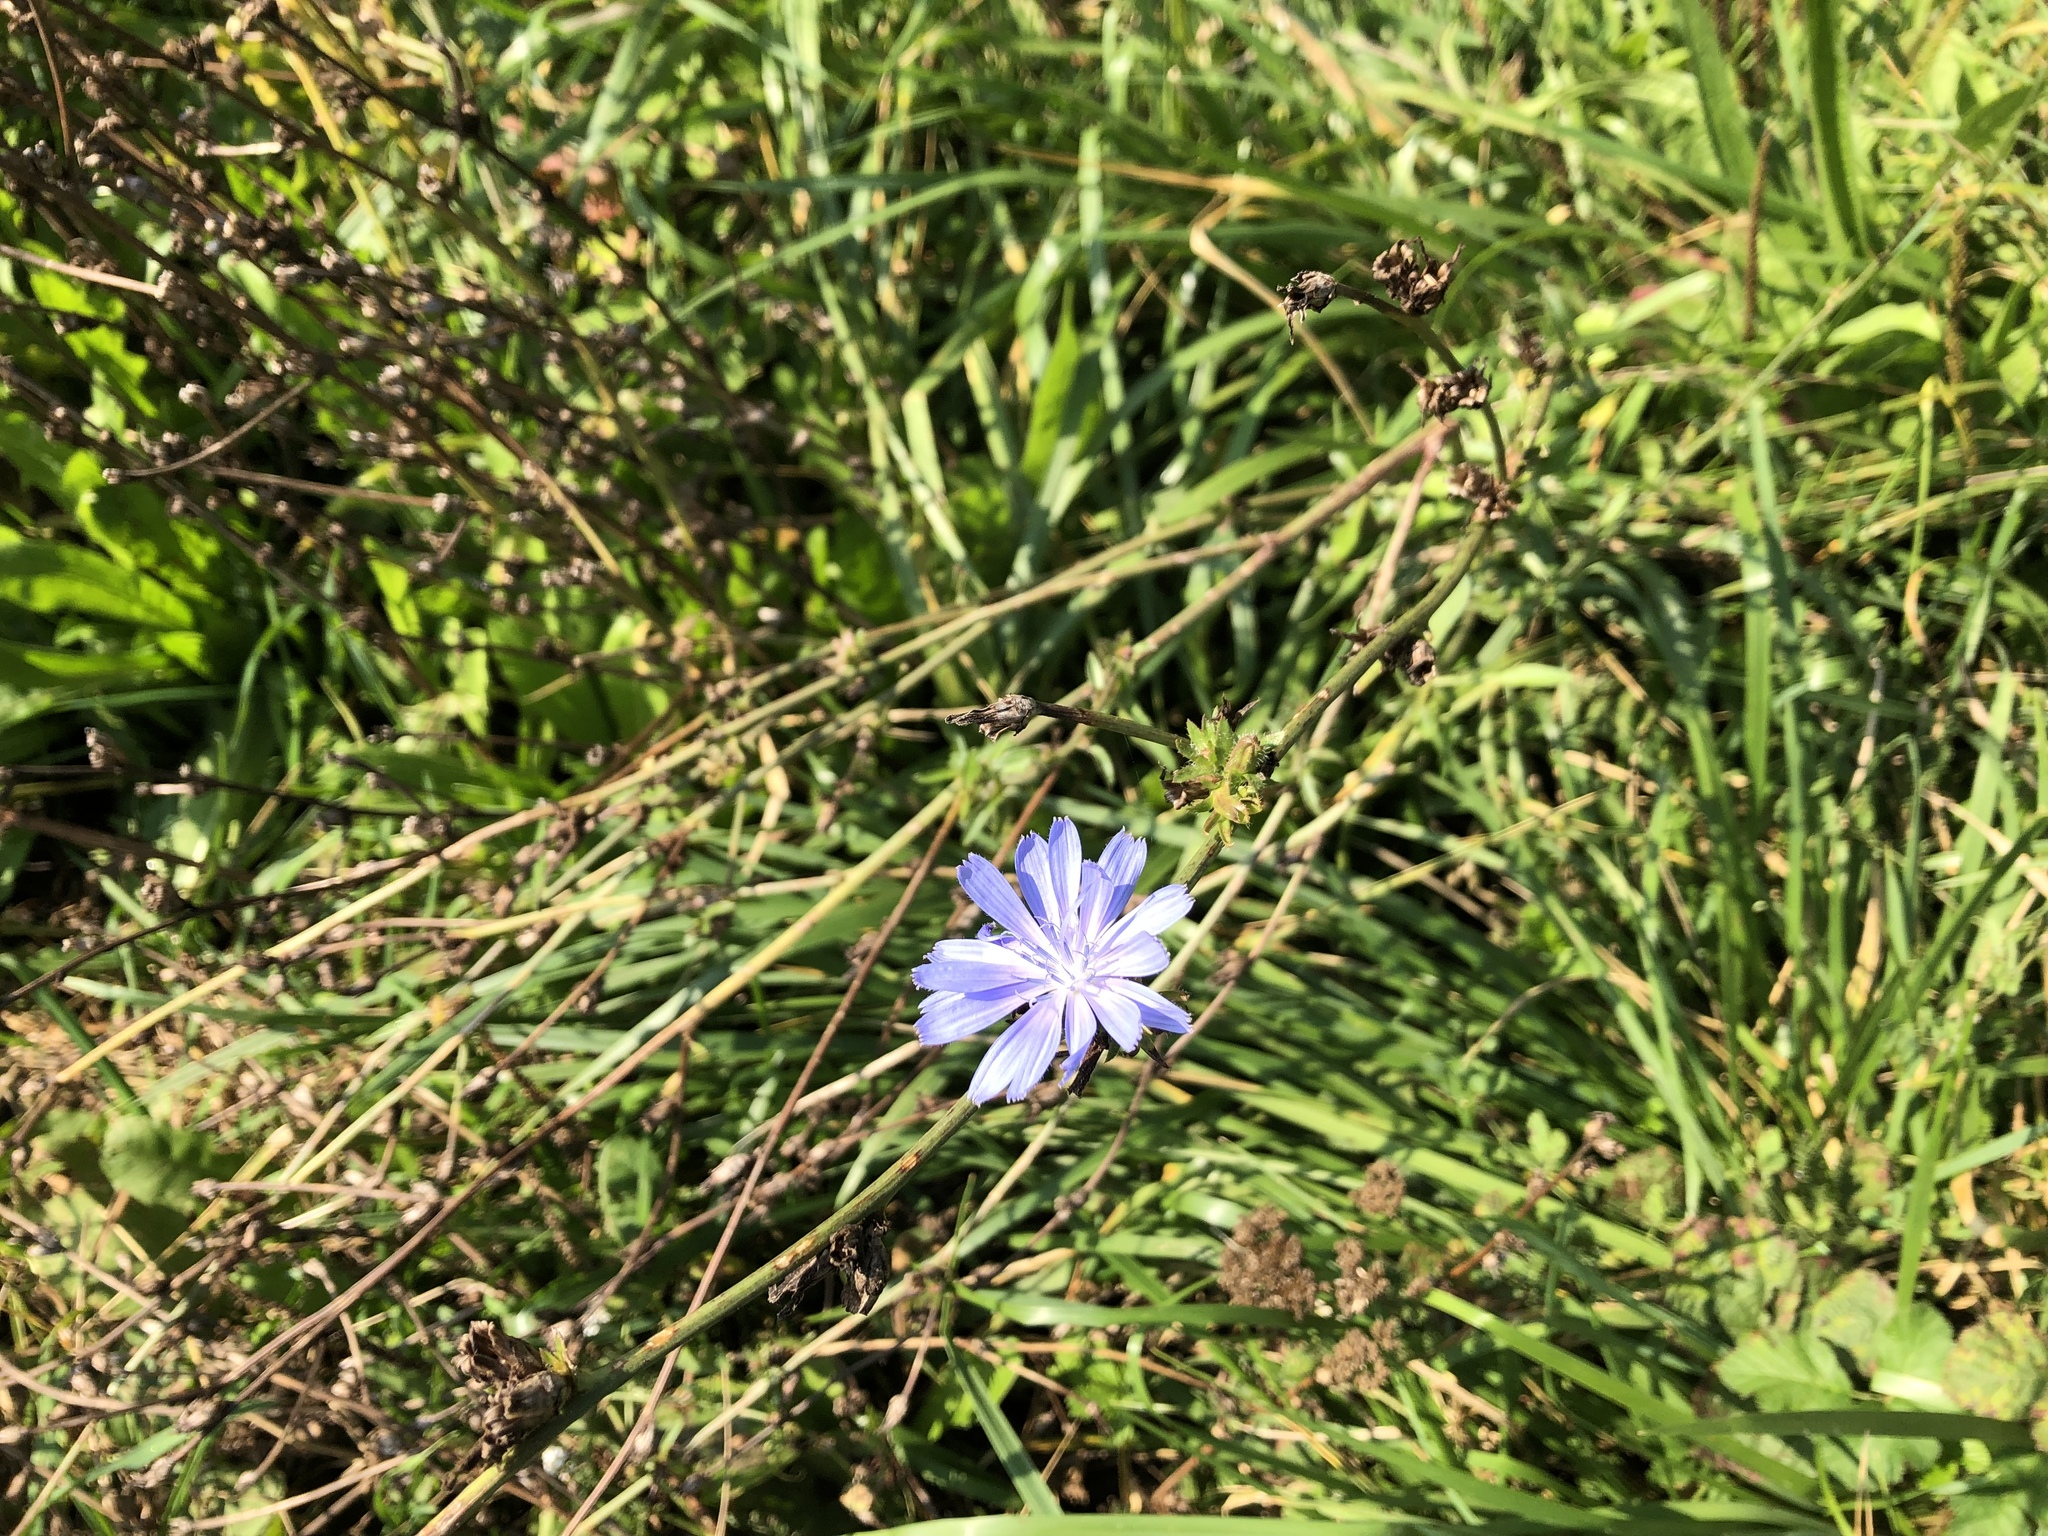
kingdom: Plantae
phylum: Tracheophyta
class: Magnoliopsida
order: Asterales
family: Asteraceae
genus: Cichorium
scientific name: Cichorium intybus
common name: Chicory
